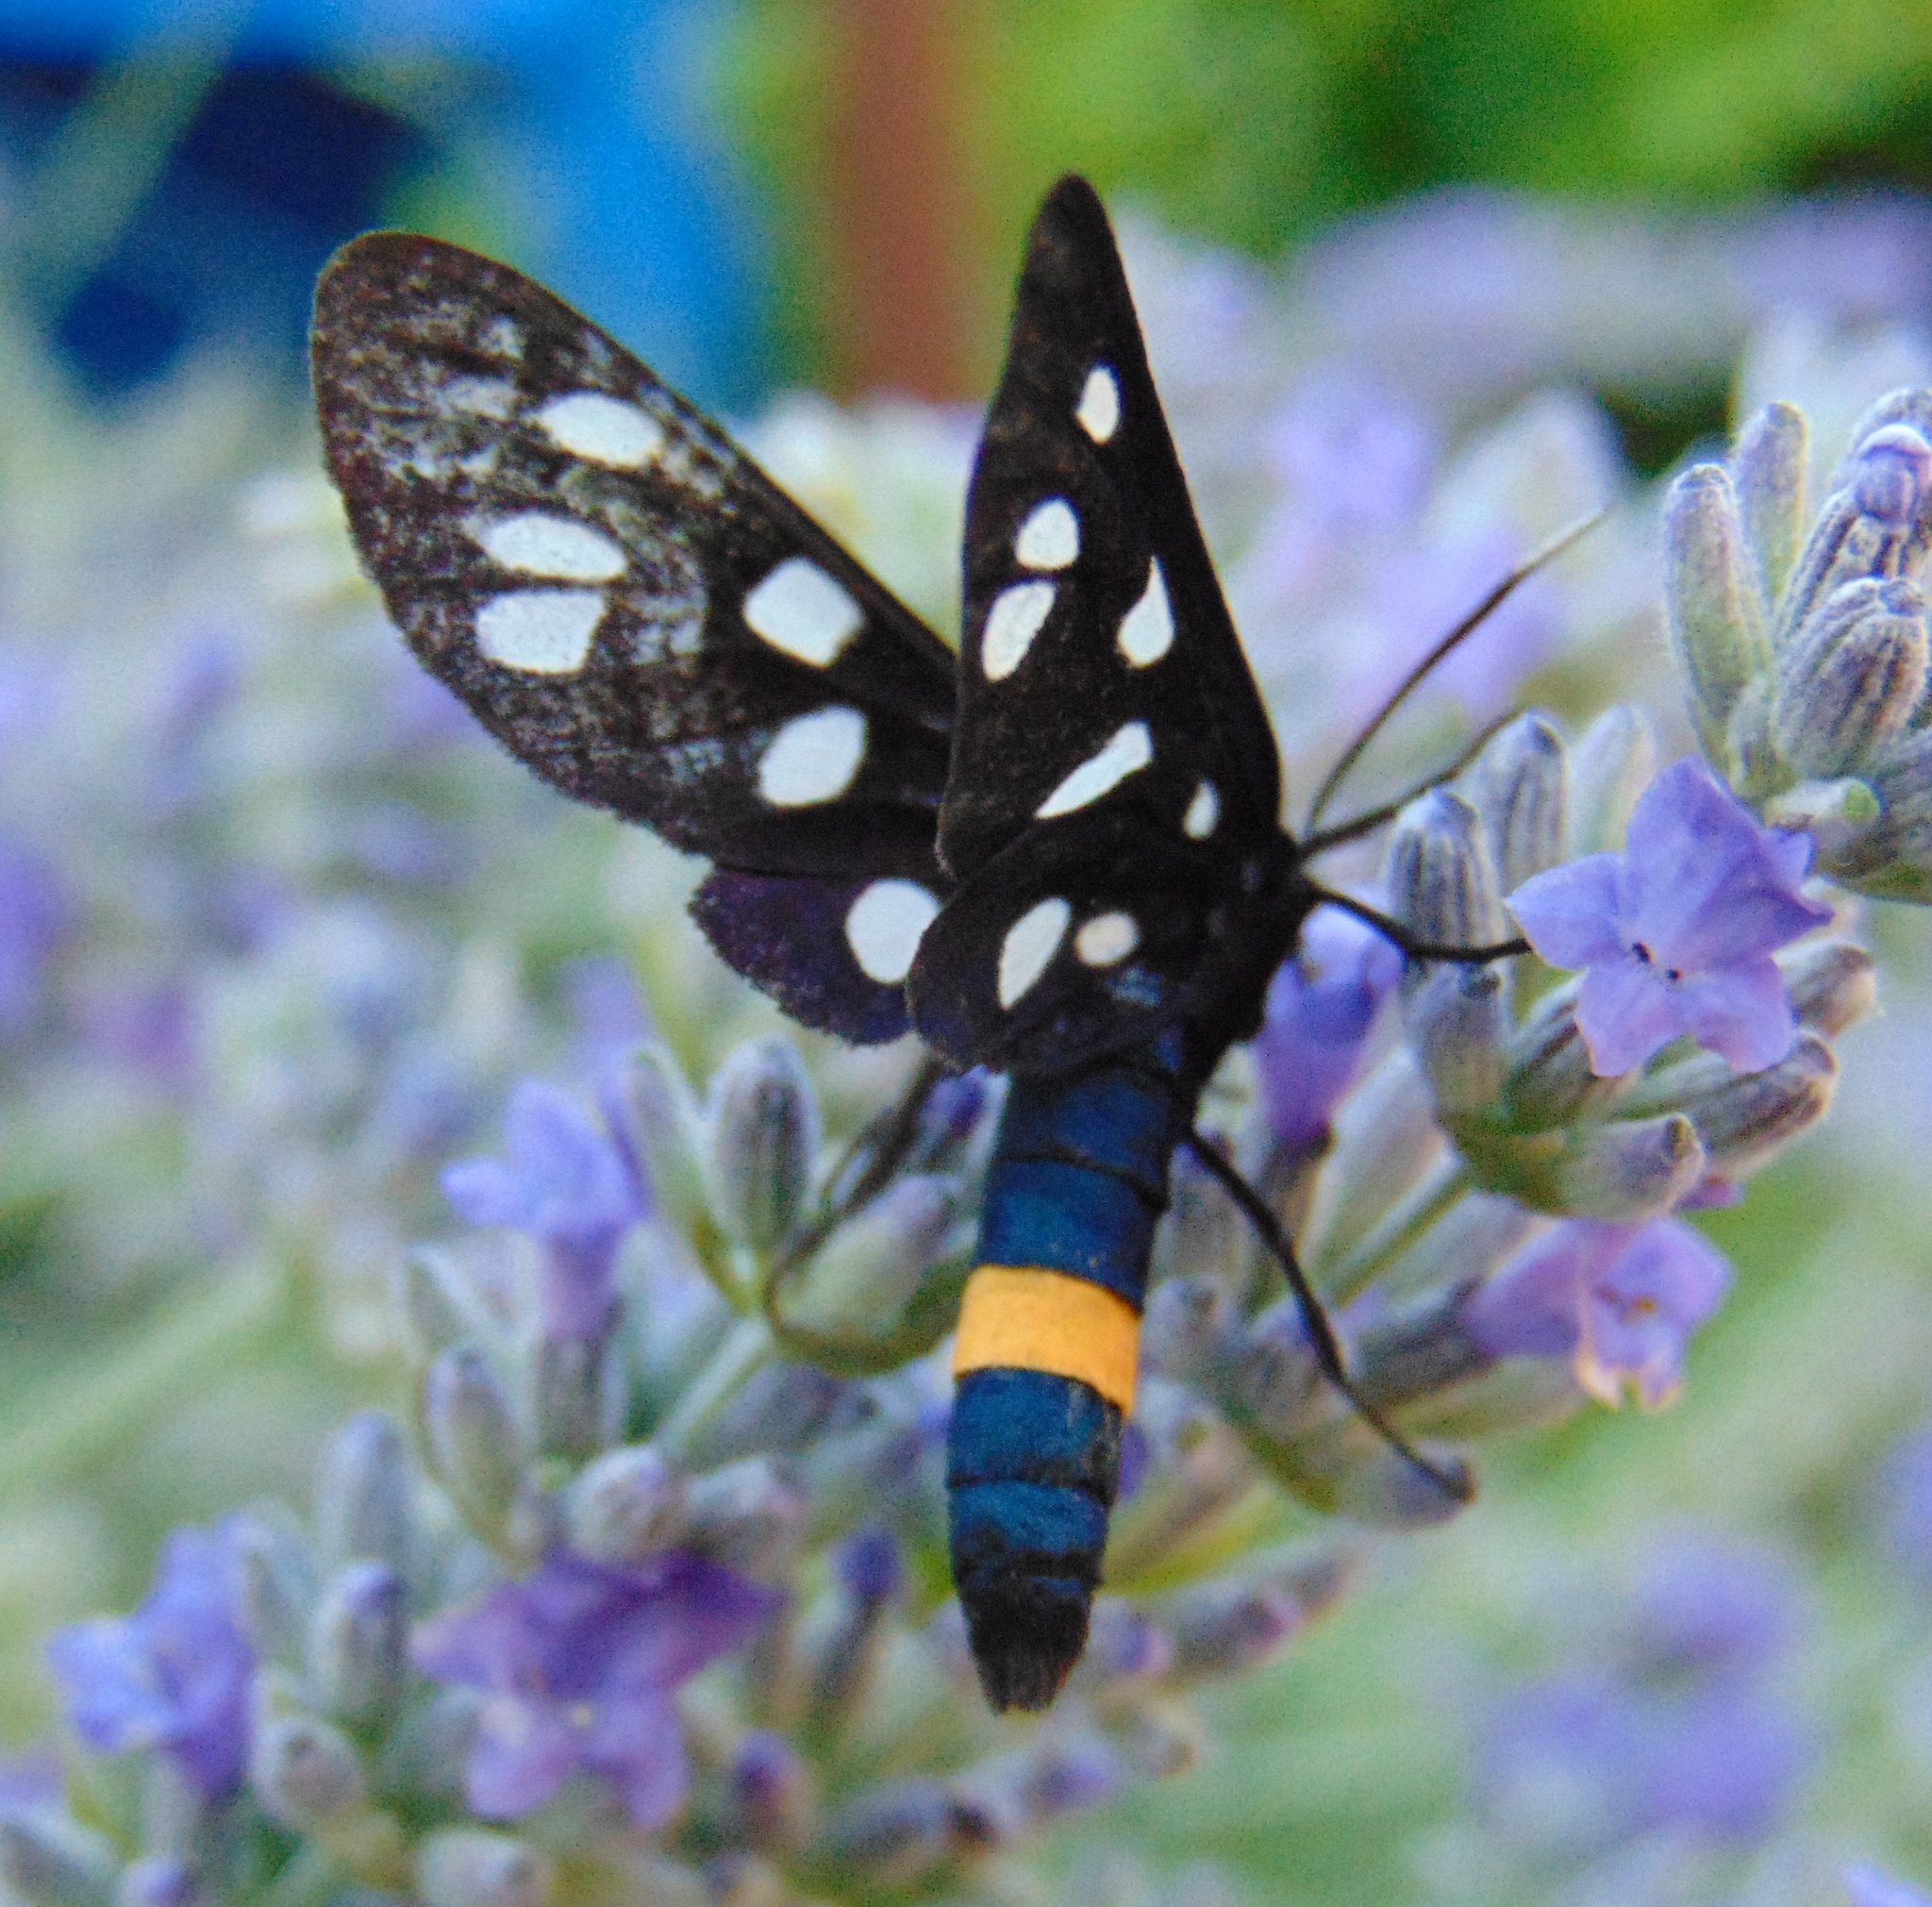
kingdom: Animalia
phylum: Arthropoda
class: Insecta
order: Lepidoptera
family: Erebidae
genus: Amata
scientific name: Amata phegea
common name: Nine-spotted
